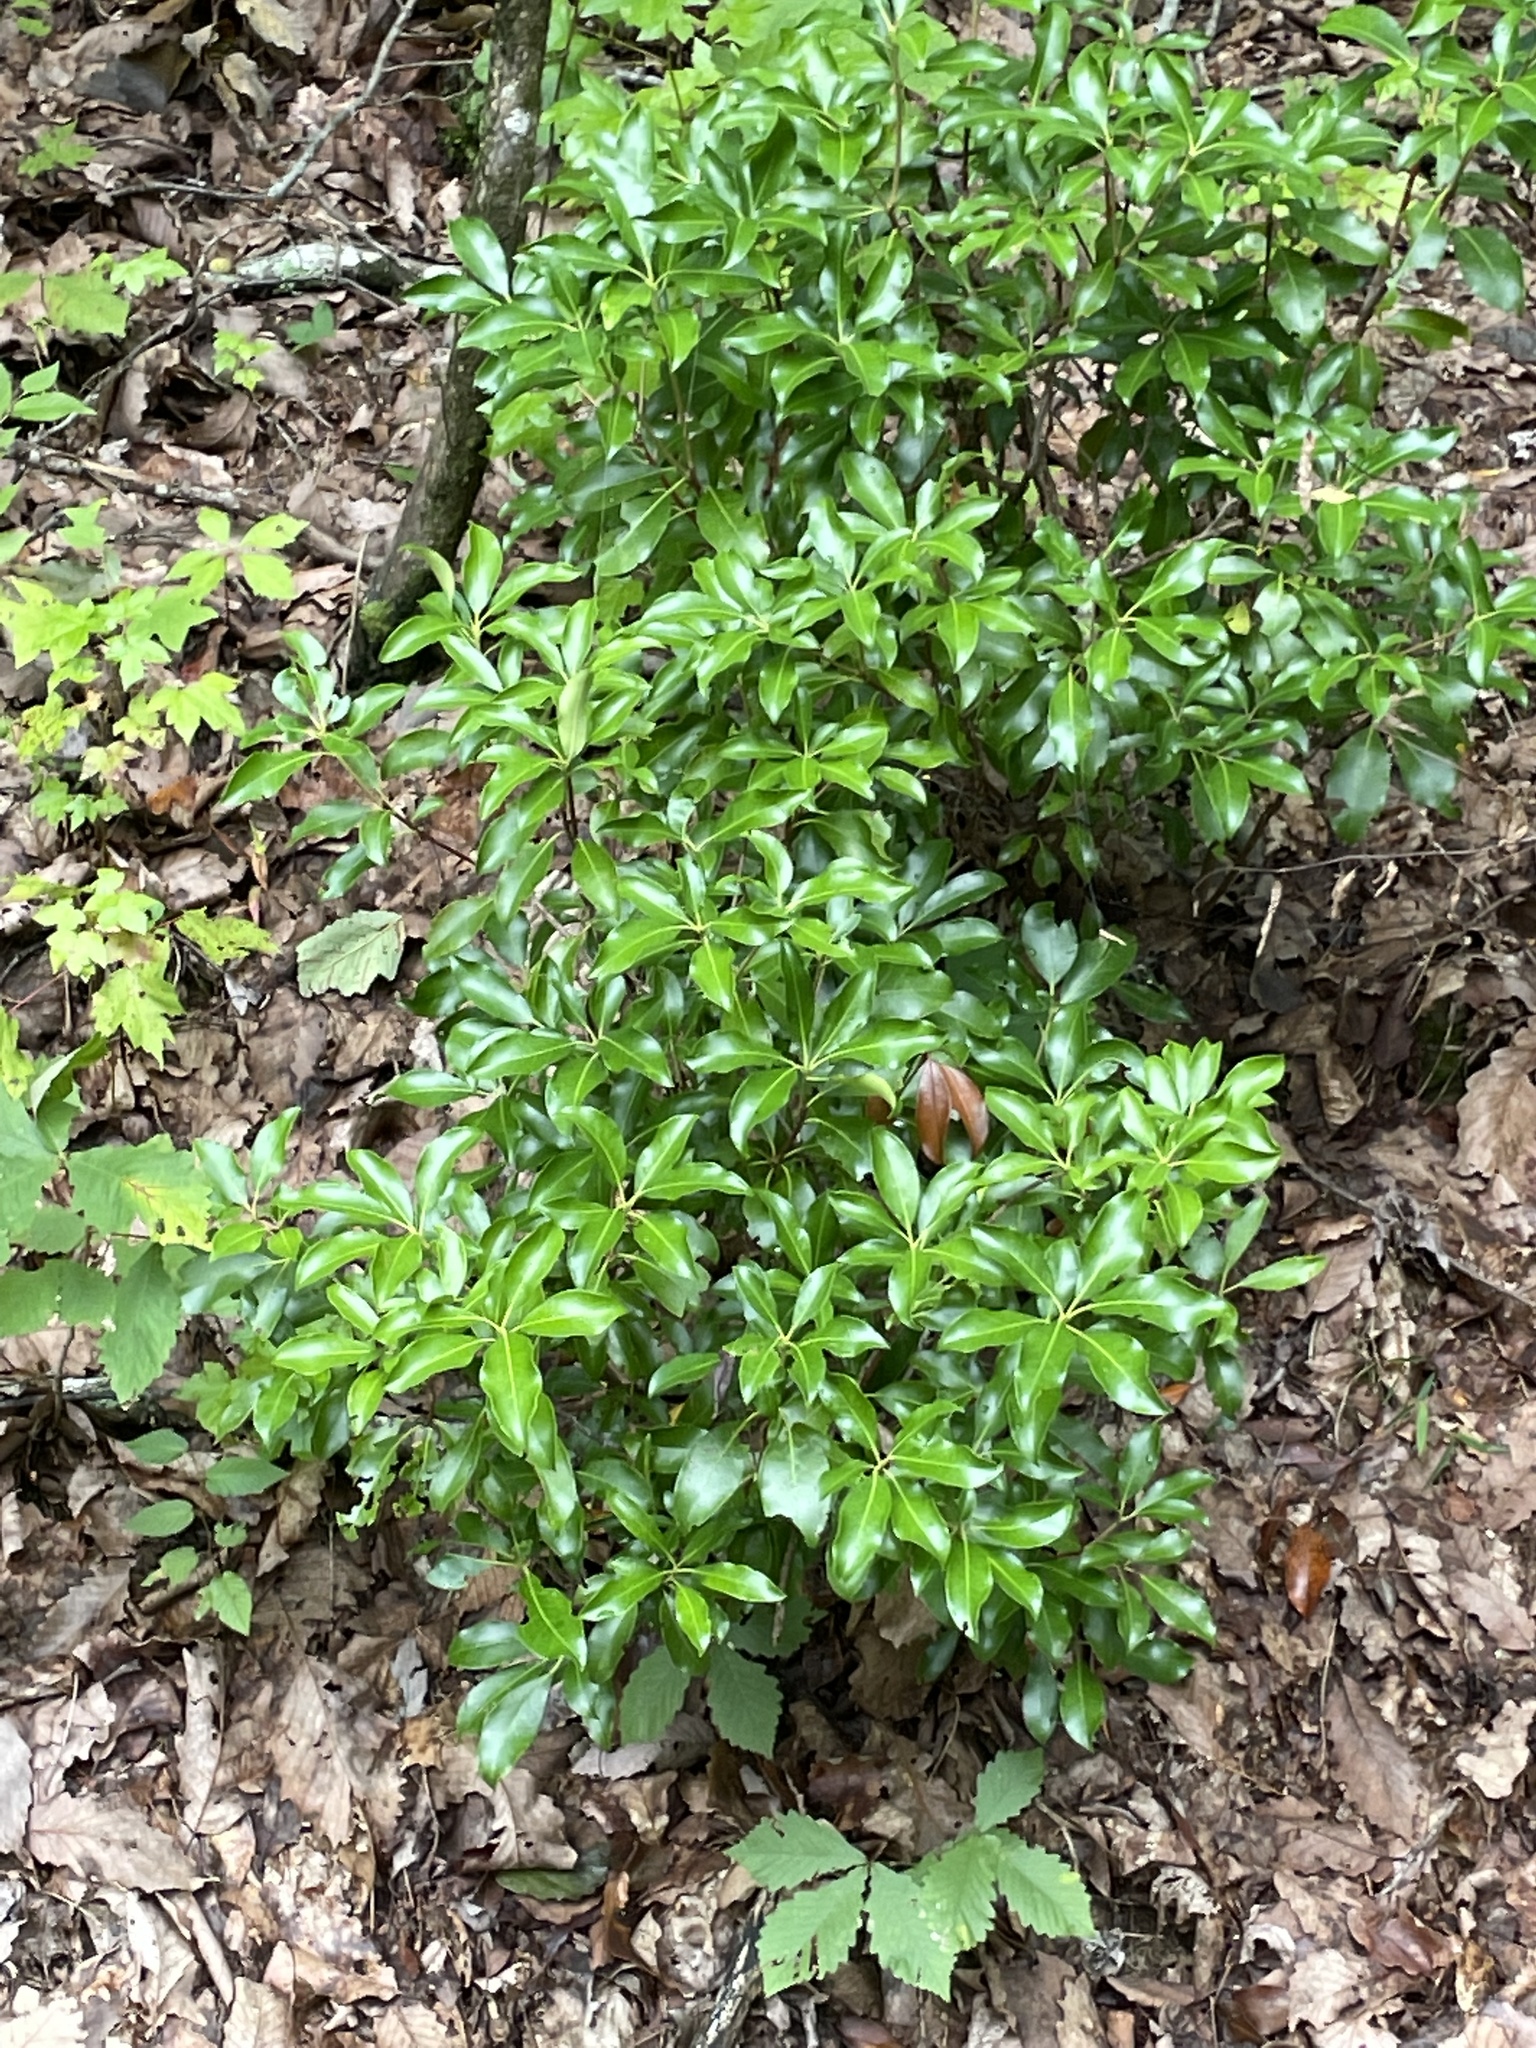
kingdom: Plantae
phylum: Tracheophyta
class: Magnoliopsida
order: Ericales
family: Ericaceae
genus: Kalmia
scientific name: Kalmia latifolia
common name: Mountain-laurel
